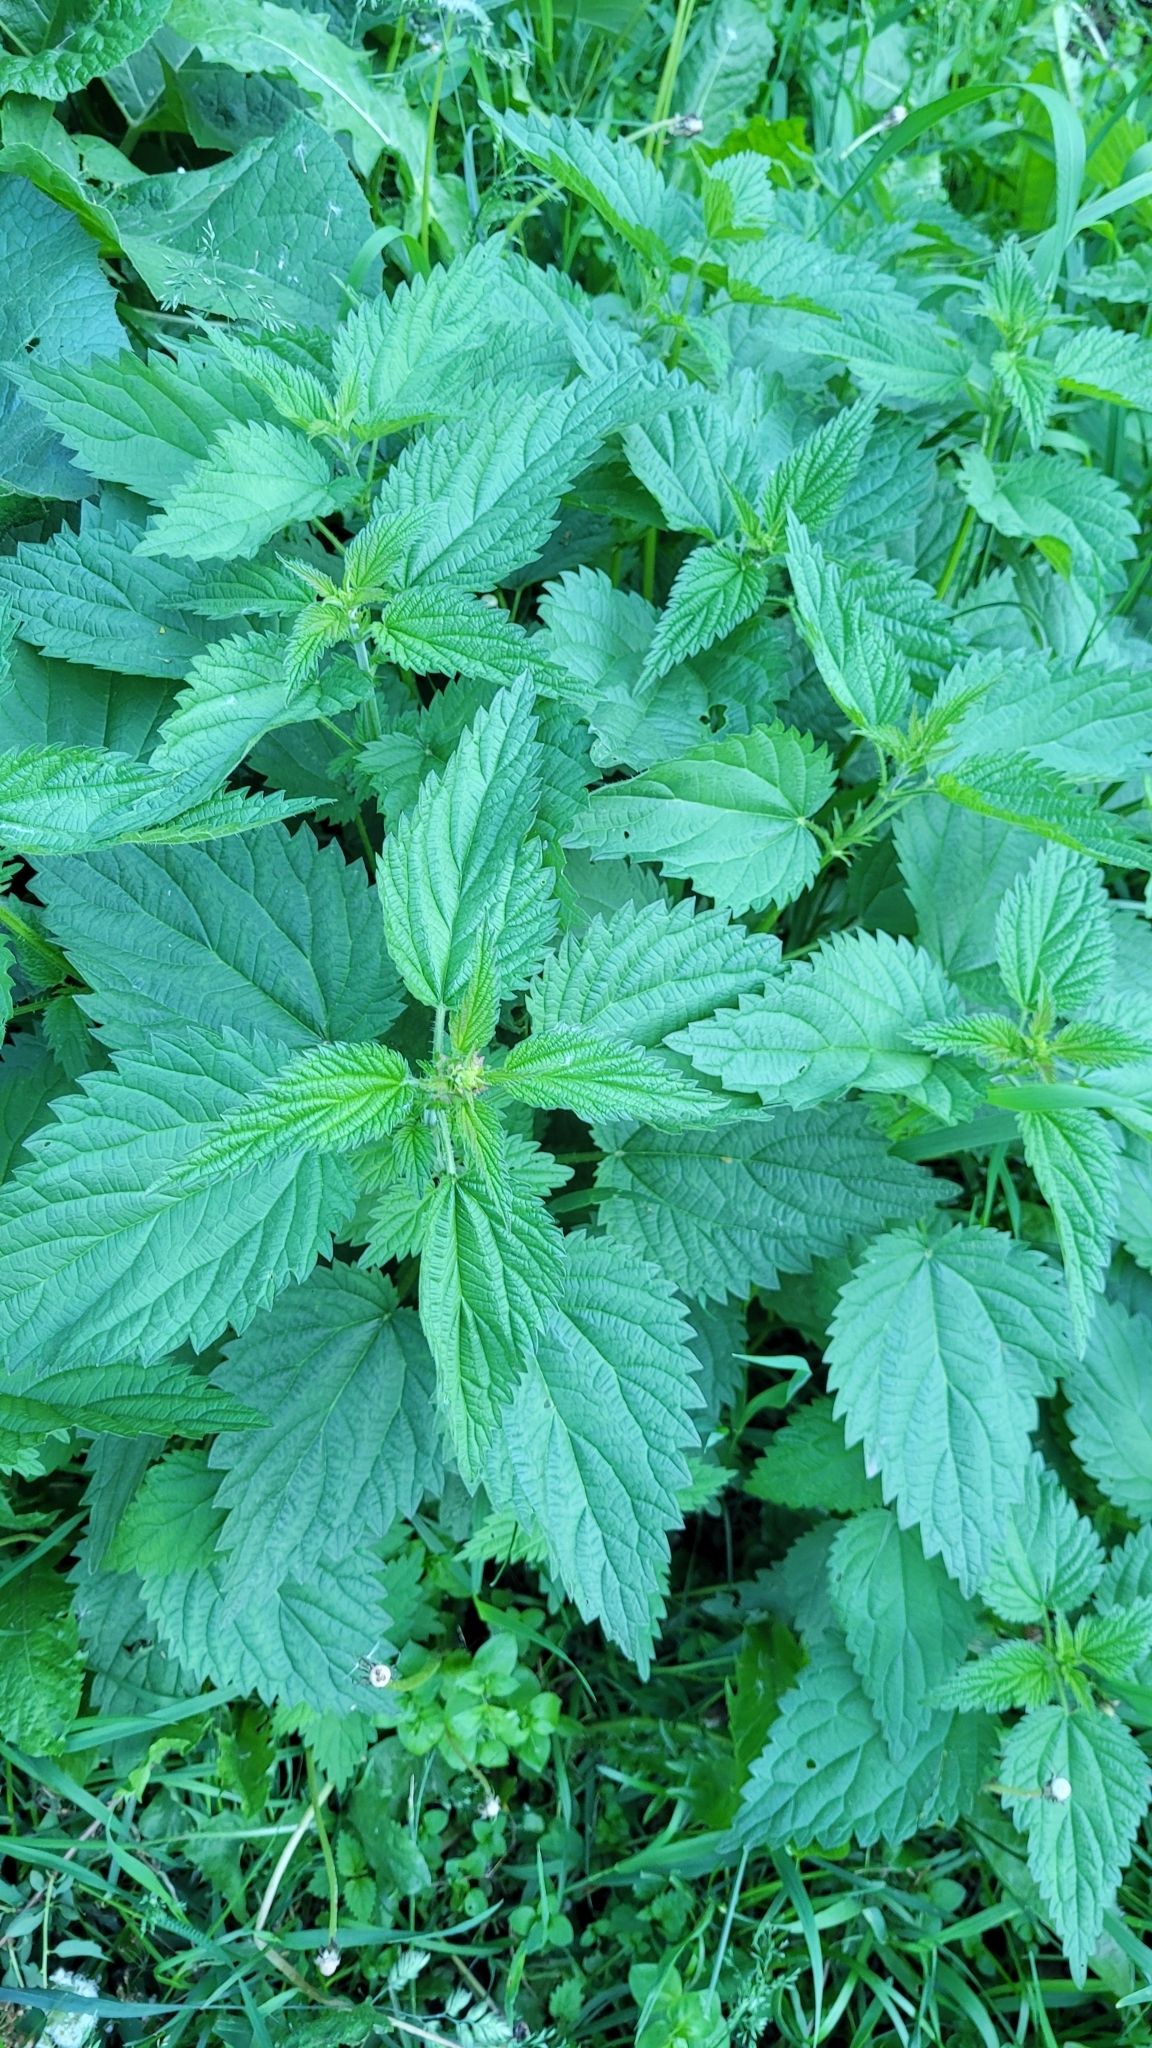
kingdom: Plantae
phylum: Tracheophyta
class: Magnoliopsida
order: Rosales
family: Urticaceae
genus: Urtica
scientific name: Urtica dioica
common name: Common nettle
